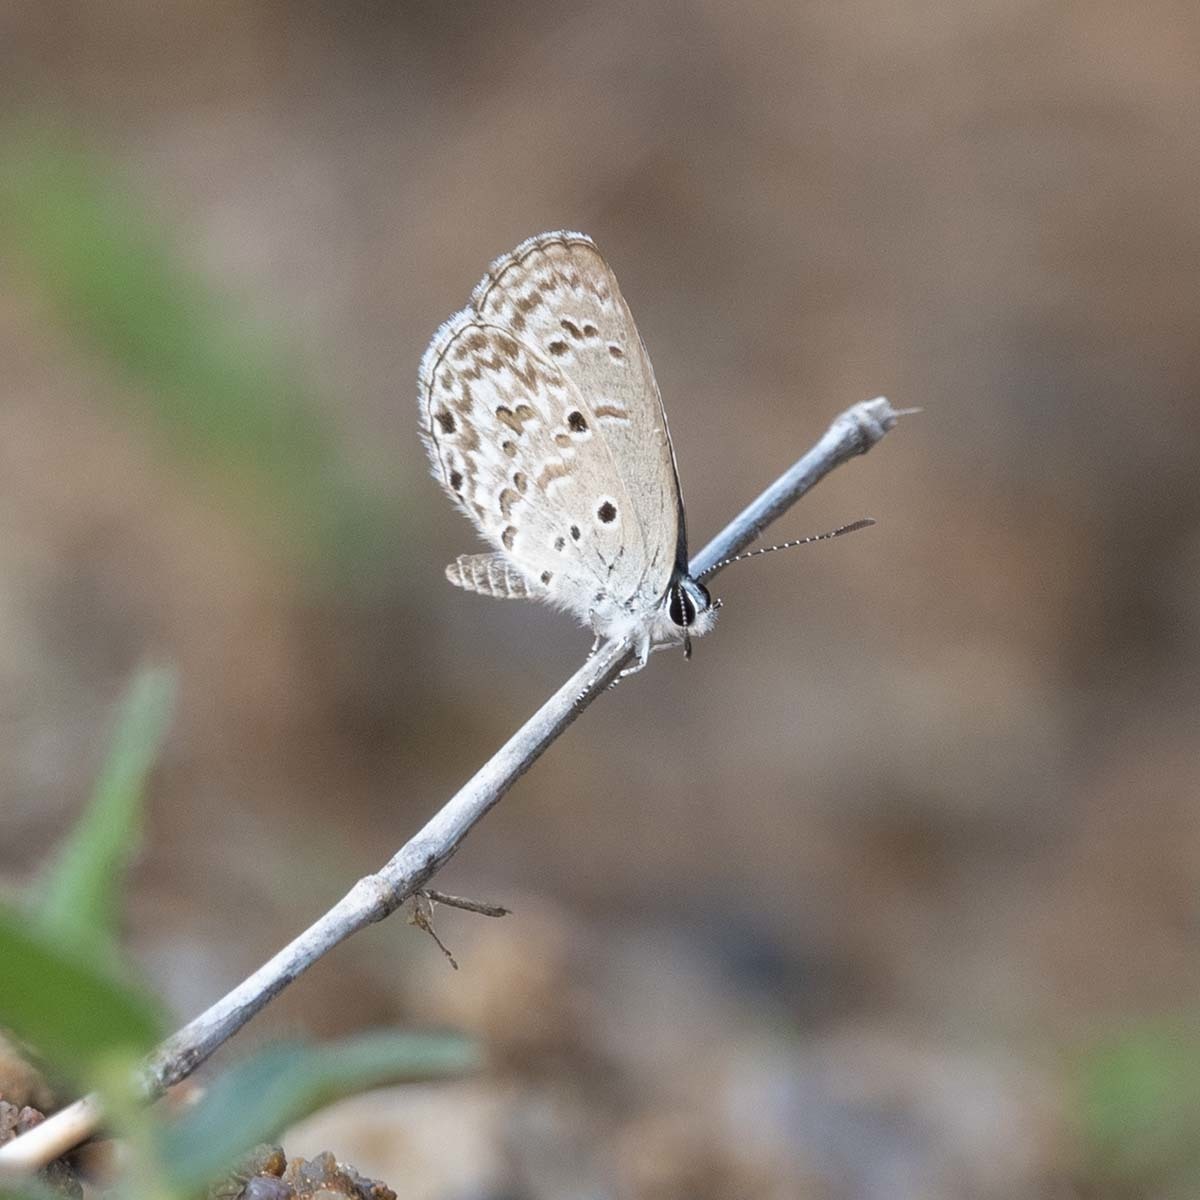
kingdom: Animalia
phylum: Arthropoda
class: Insecta
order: Lepidoptera
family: Lycaenidae
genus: Chilades
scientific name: Chilades laius
